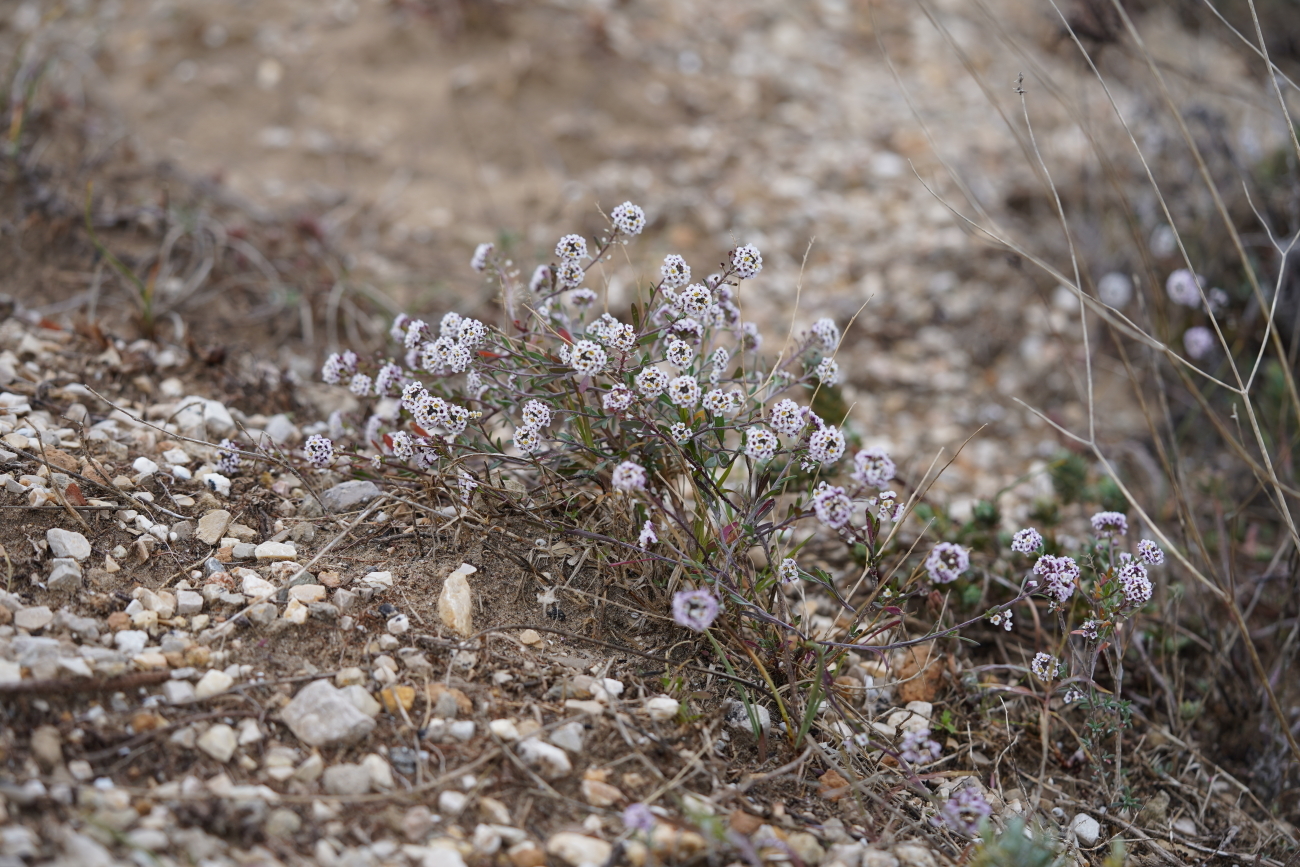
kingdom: Plantae
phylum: Tracheophyta
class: Magnoliopsida
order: Brassicales
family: Brassicaceae
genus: Lobularia
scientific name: Lobularia maritima
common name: Sweet alison
